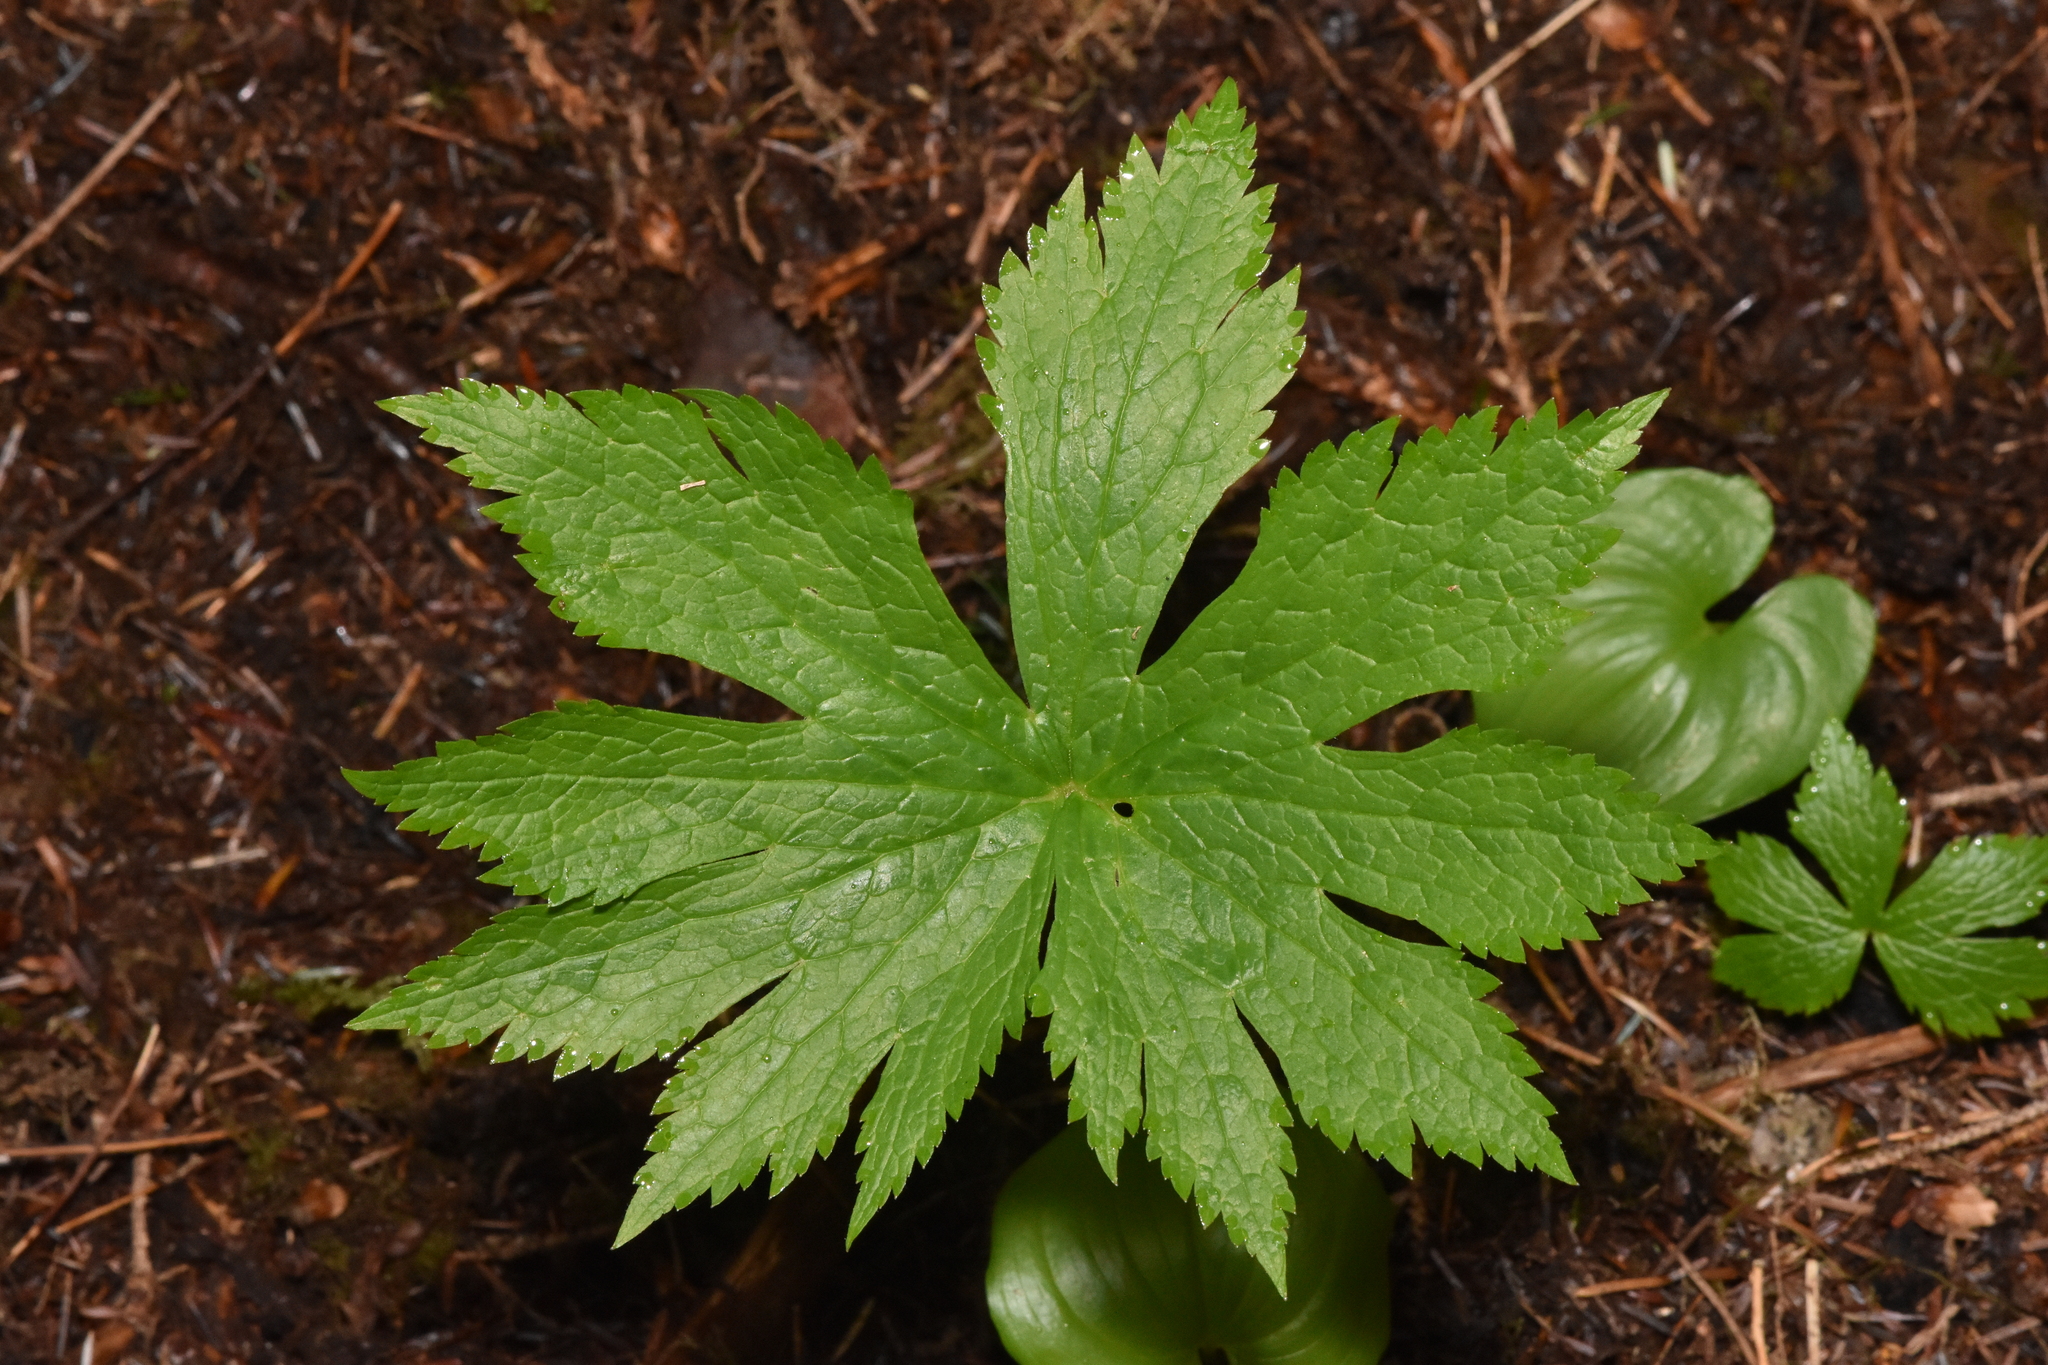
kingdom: Plantae
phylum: Tracheophyta
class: Magnoliopsida
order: Ranunculales
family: Ranunculaceae
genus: Trautvetteria
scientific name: Trautvetteria carolinensis
